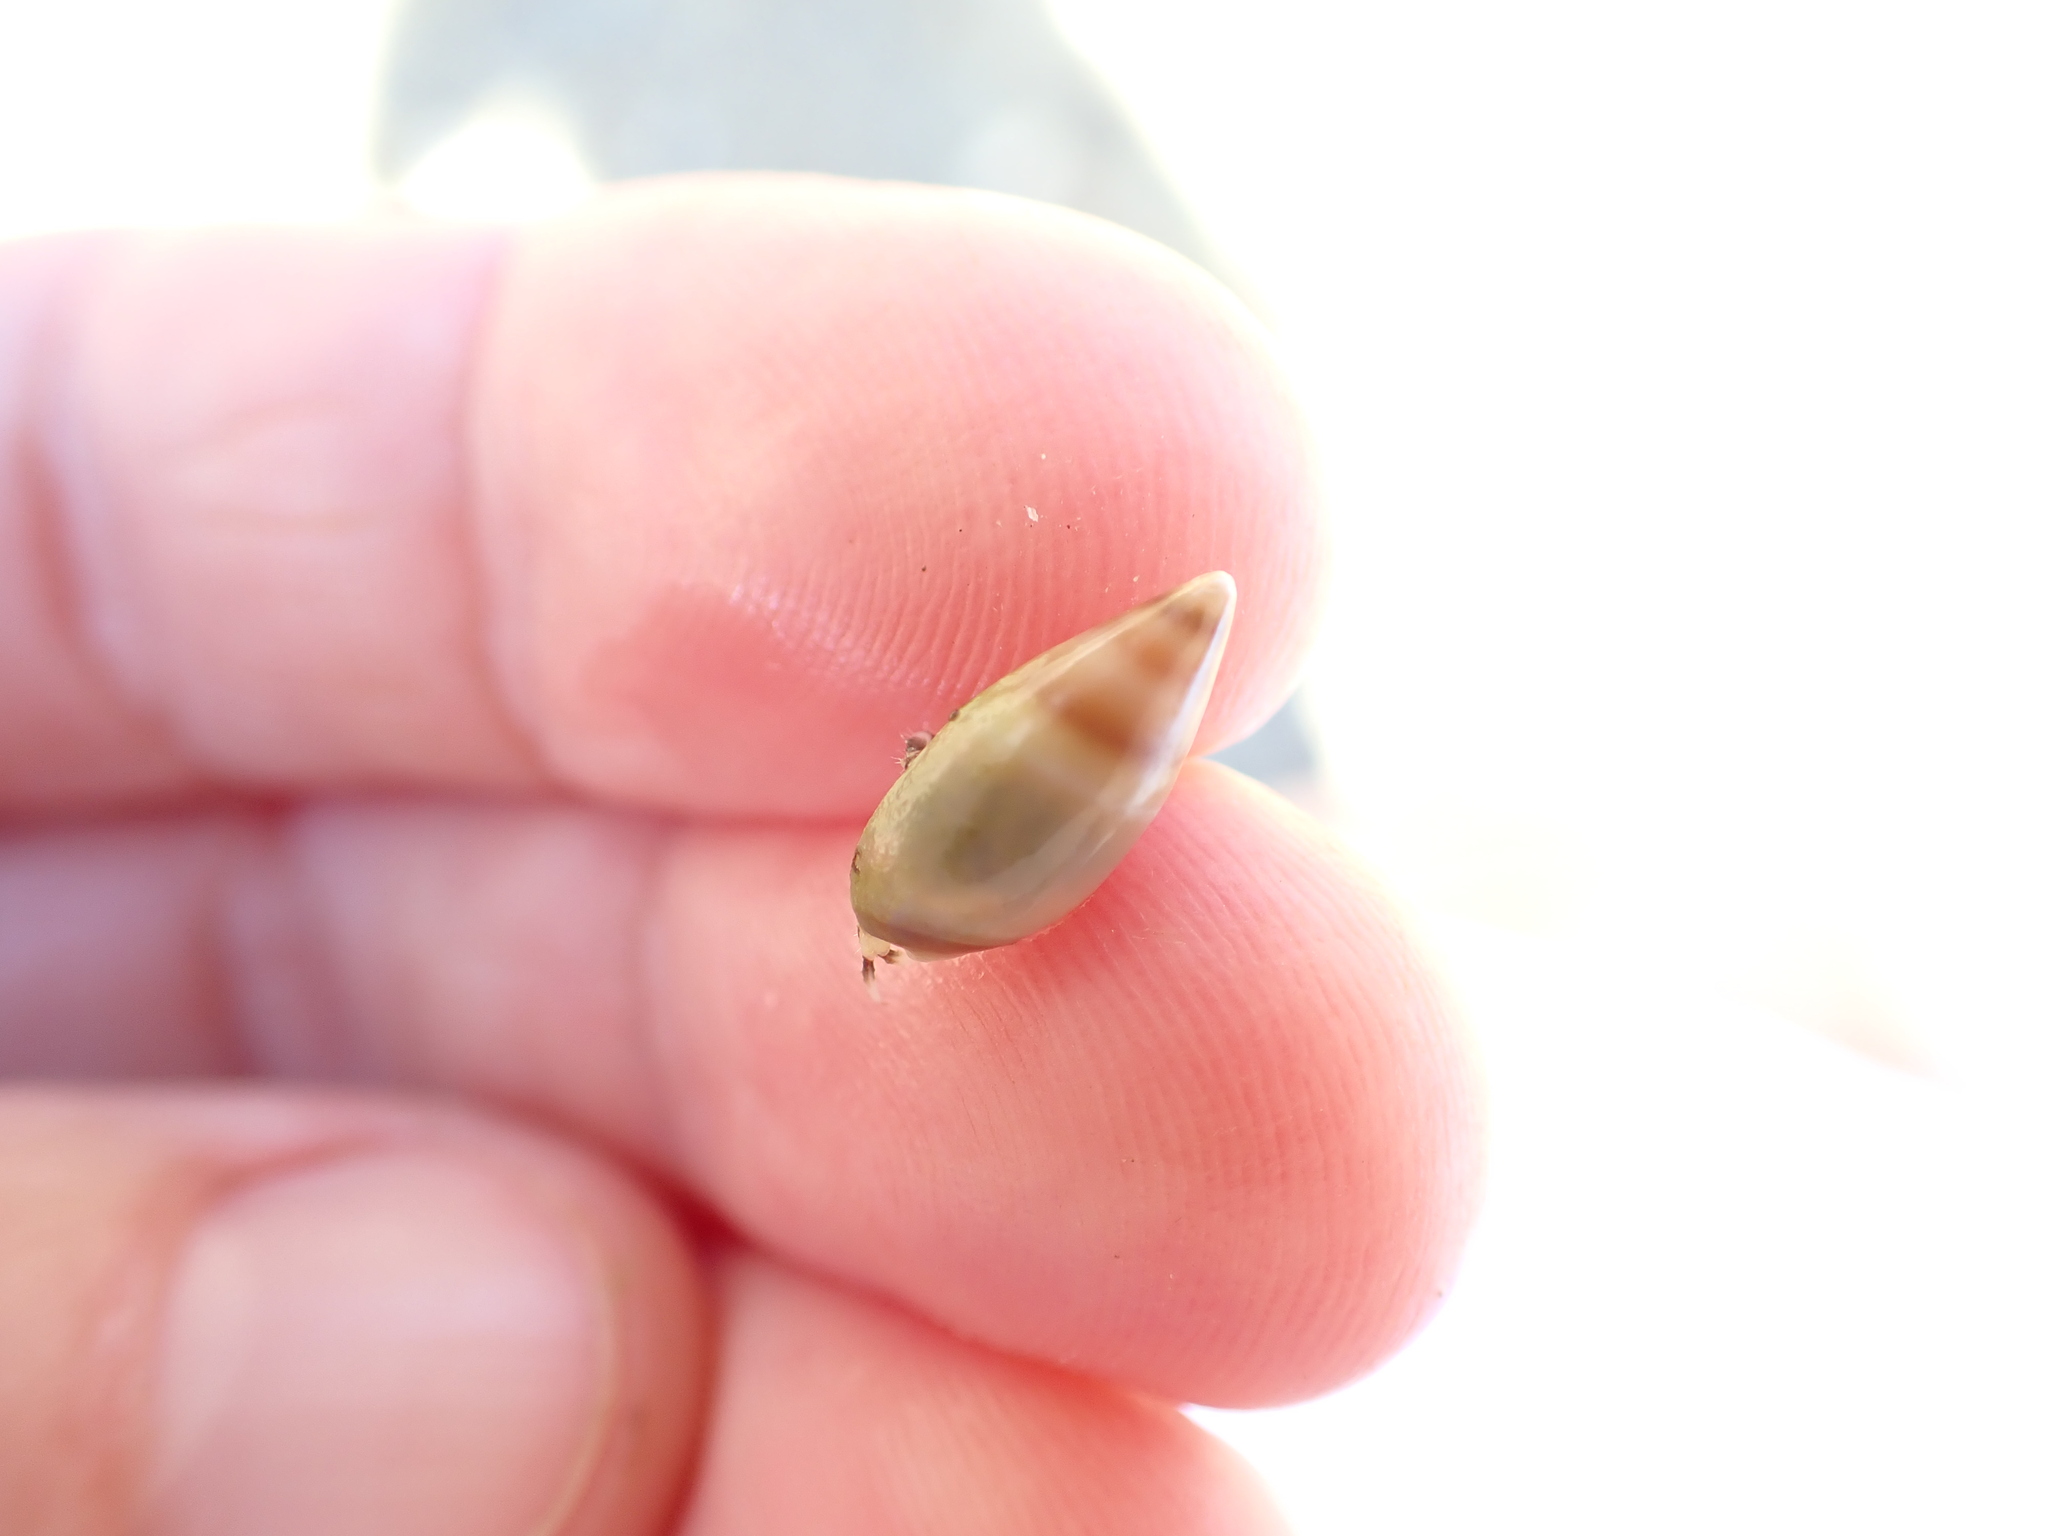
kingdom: Animalia
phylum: Mollusca
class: Gastropoda
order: Neogastropoda
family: Ancillariidae
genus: Amalda
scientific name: Amalda novaezelandiae
